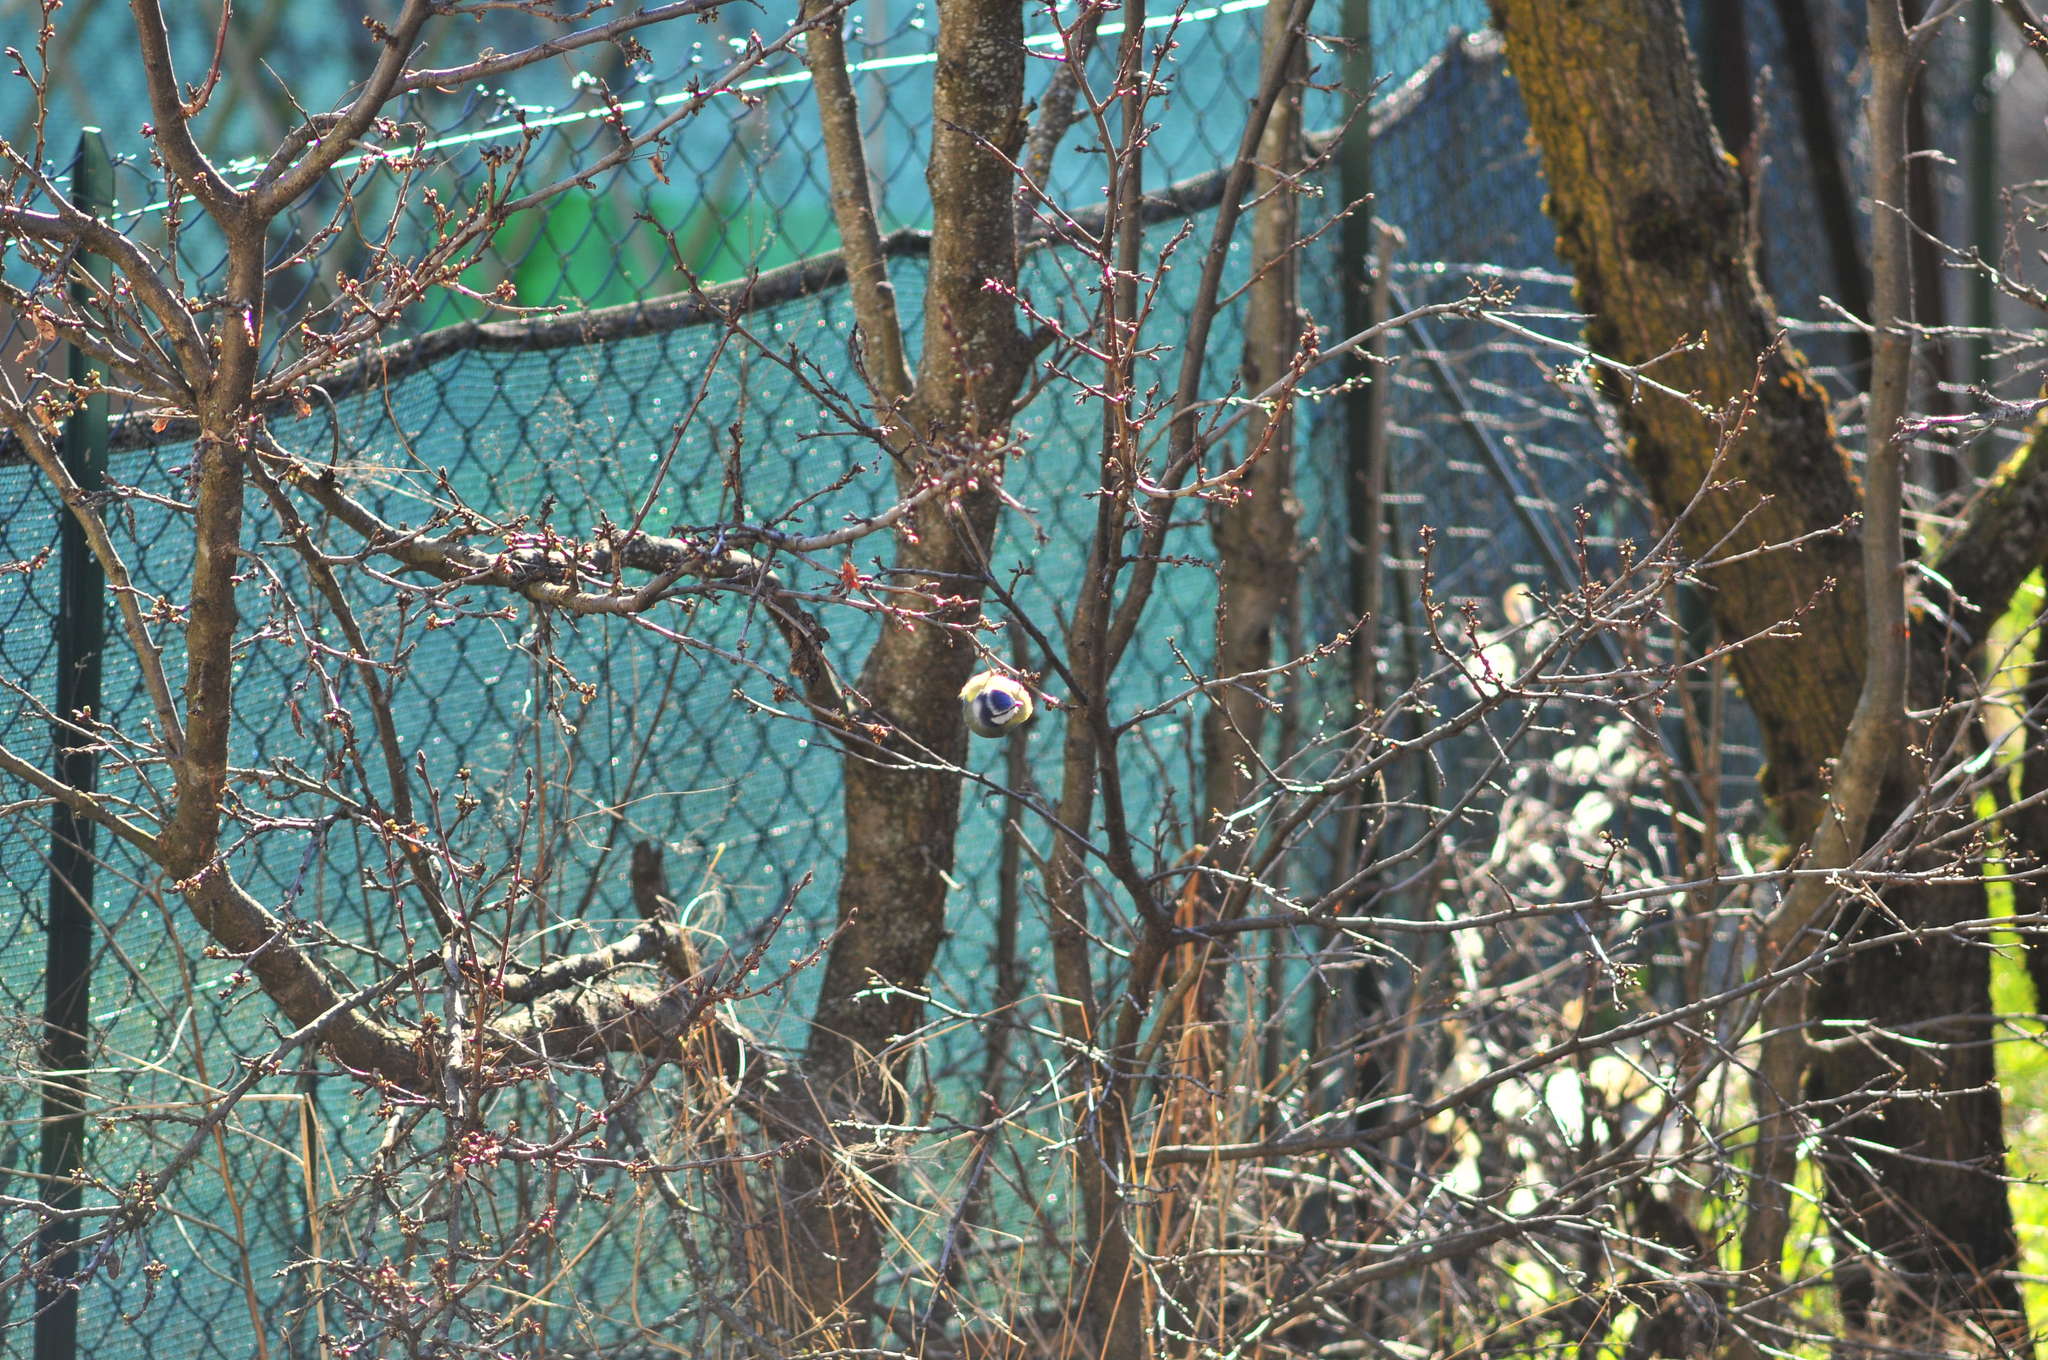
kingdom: Animalia
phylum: Chordata
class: Aves
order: Passeriformes
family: Paridae
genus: Cyanistes
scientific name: Cyanistes caeruleus
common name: Eurasian blue tit
